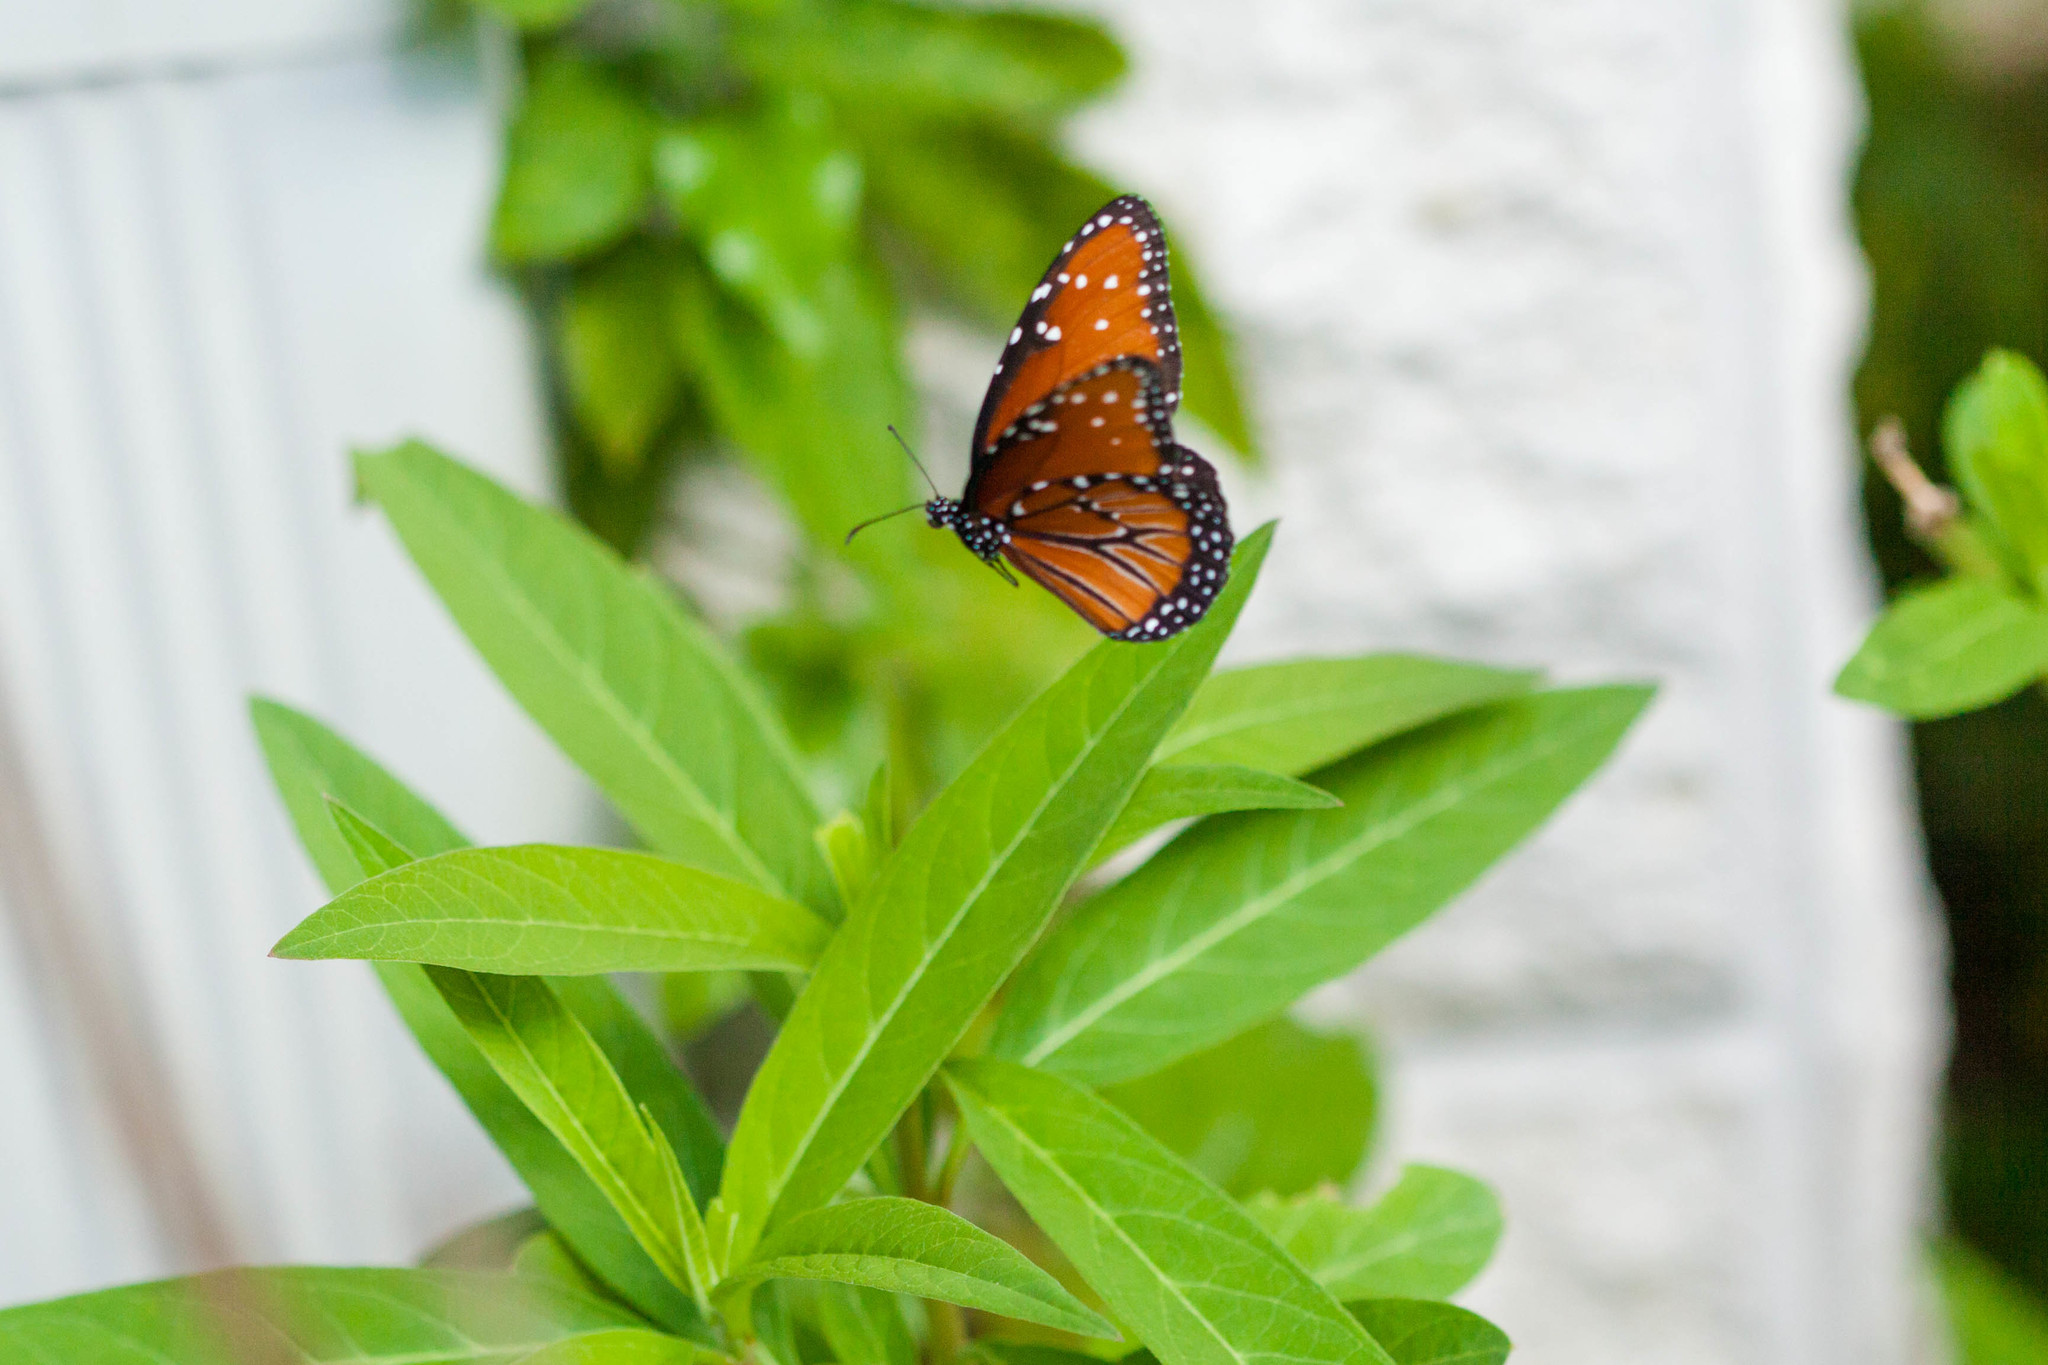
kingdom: Animalia
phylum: Arthropoda
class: Insecta
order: Lepidoptera
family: Nymphalidae
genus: Danaus
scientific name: Danaus gilippus
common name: Queen
